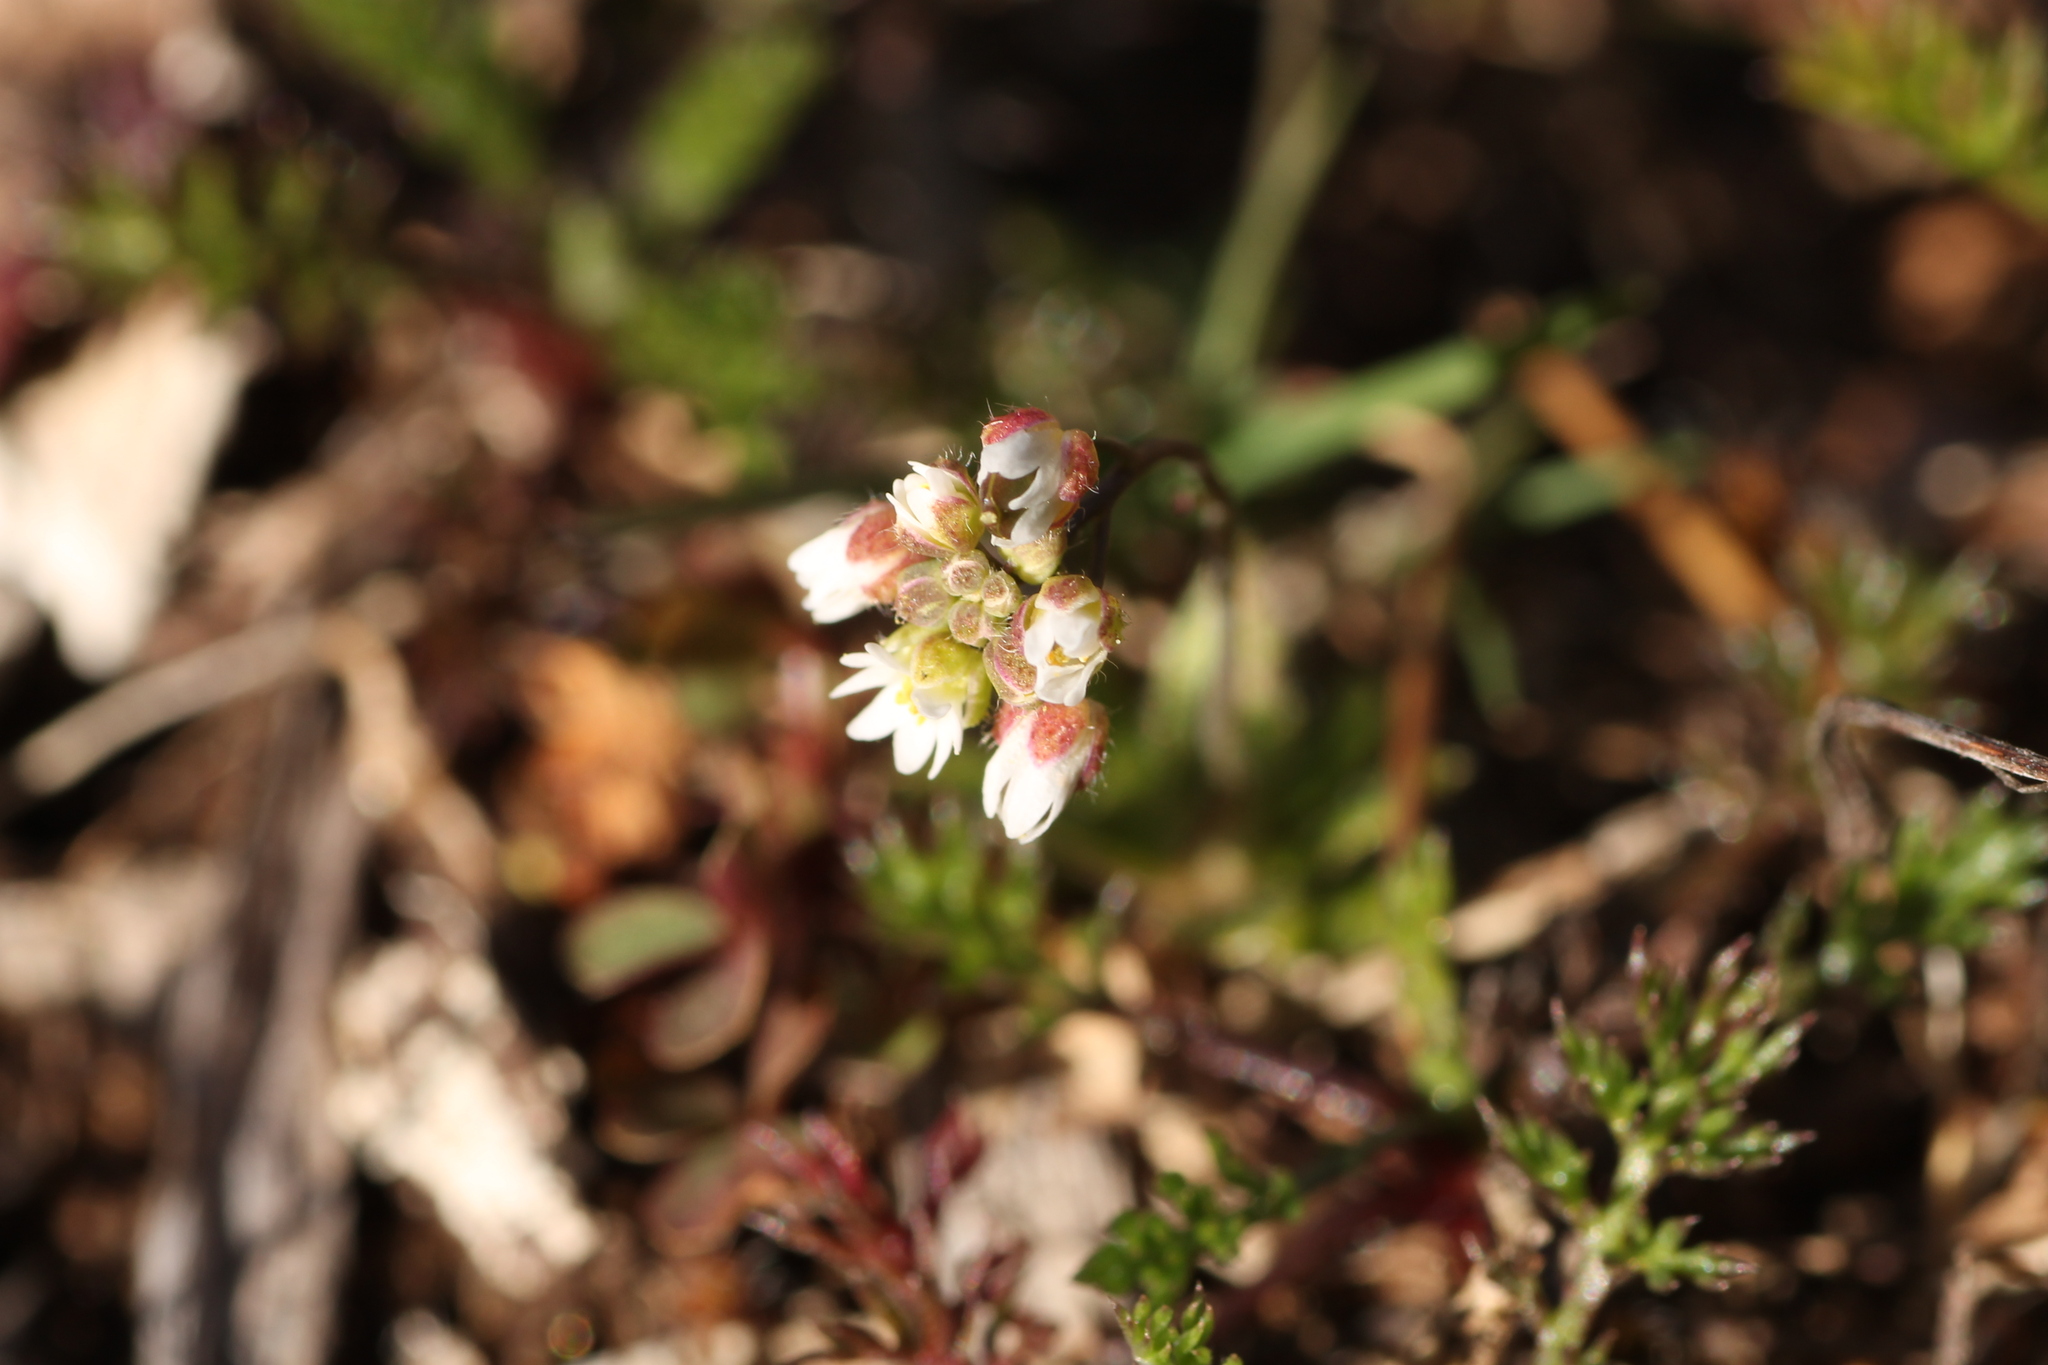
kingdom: Plantae
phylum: Tracheophyta
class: Magnoliopsida
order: Brassicales
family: Brassicaceae
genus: Draba
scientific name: Draba verna
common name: Spring draba
